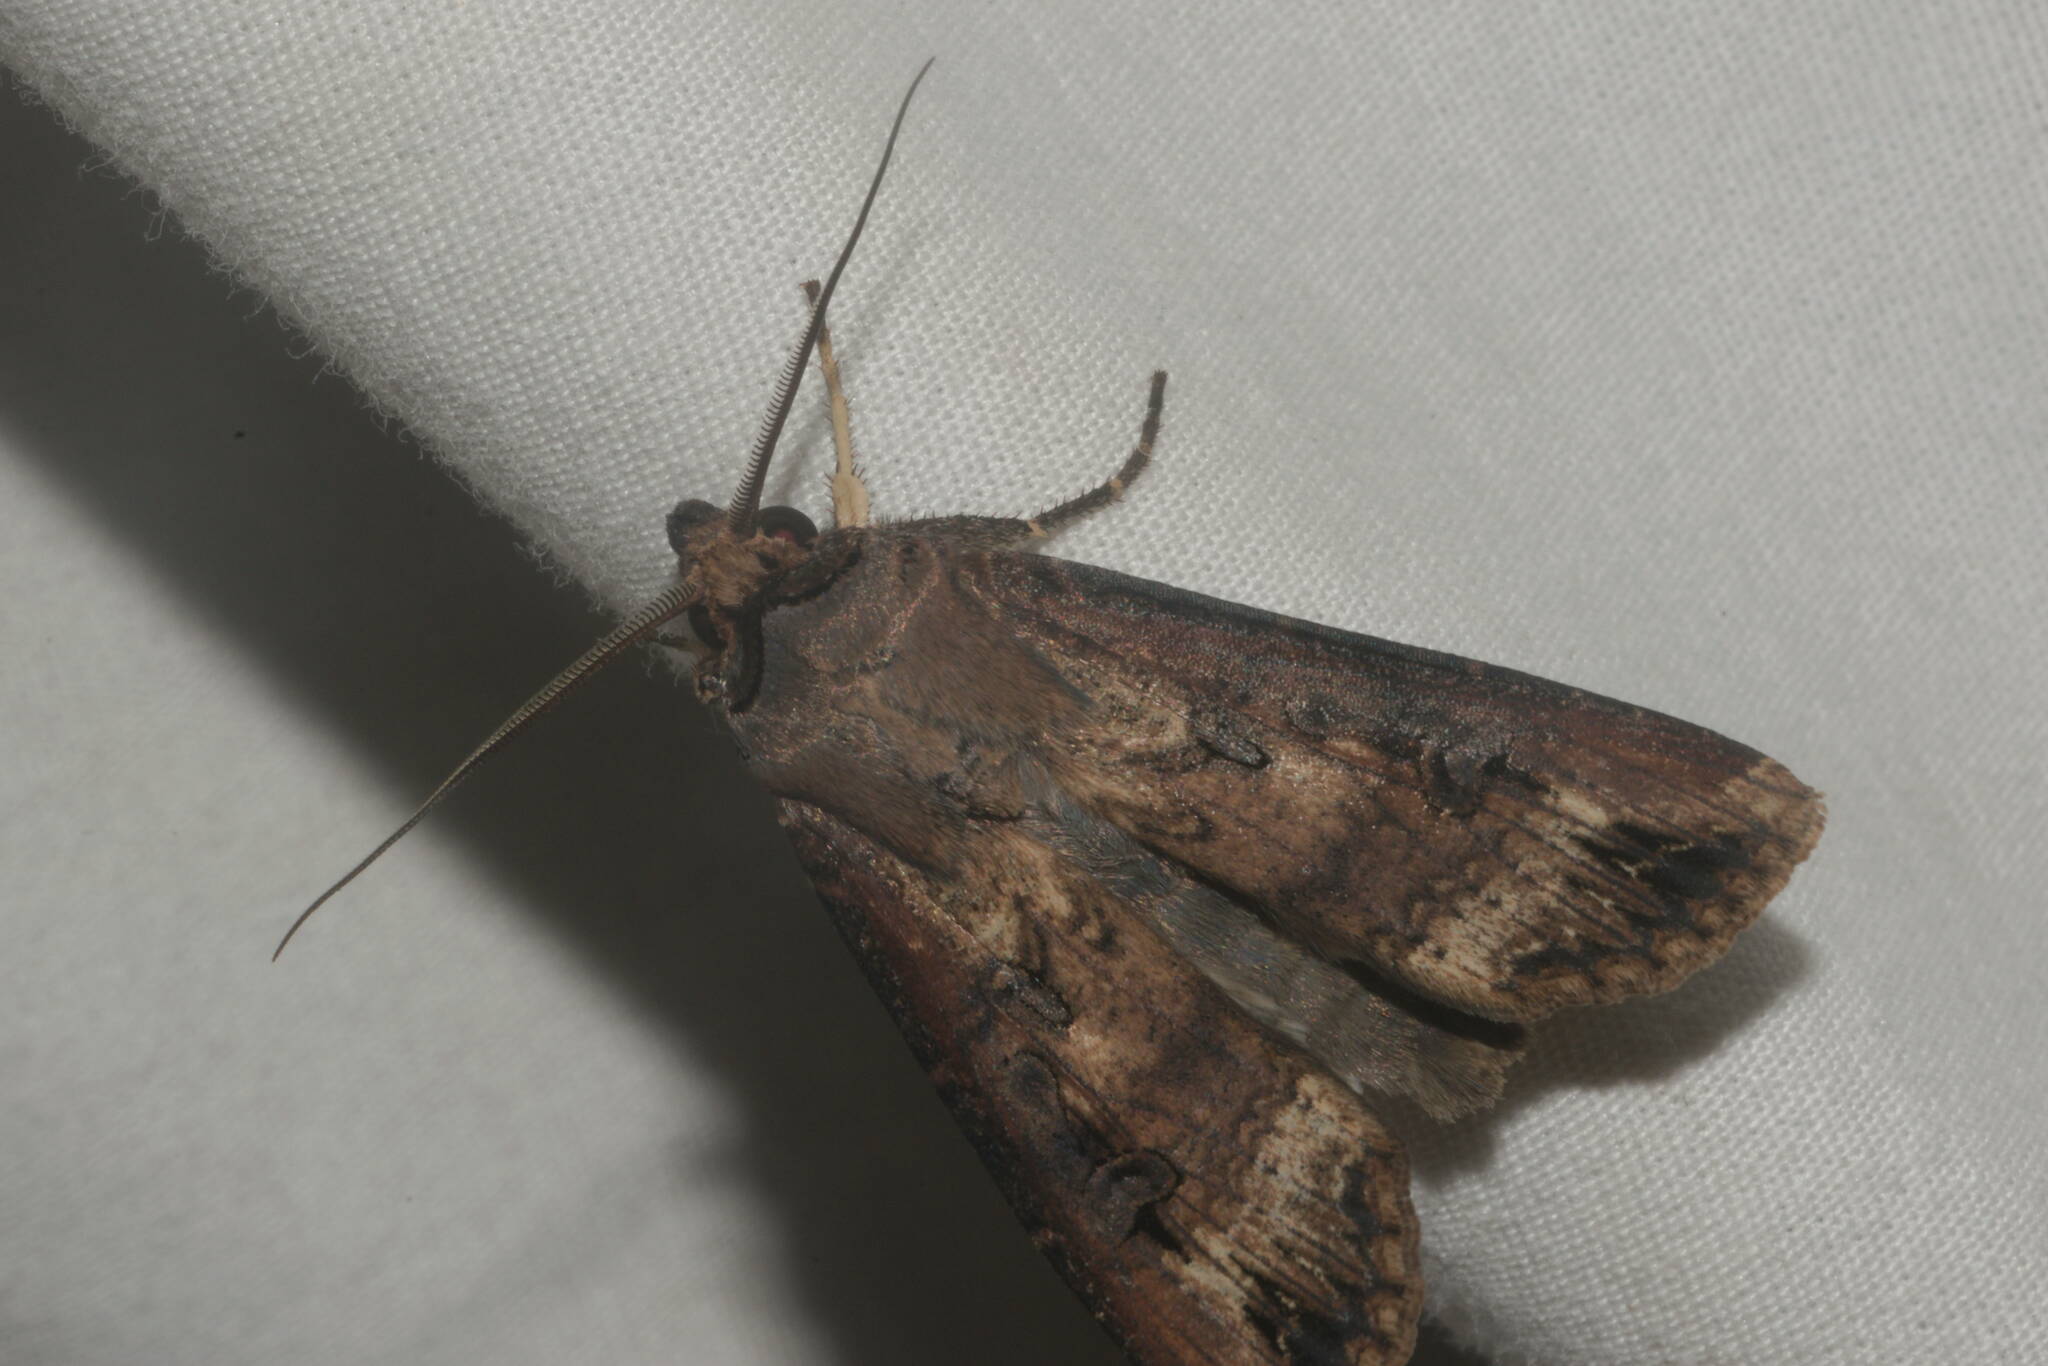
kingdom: Animalia
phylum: Arthropoda
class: Insecta
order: Lepidoptera
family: Noctuidae
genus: Agrotis
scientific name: Agrotis ipsilon
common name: Dark sword-grass
